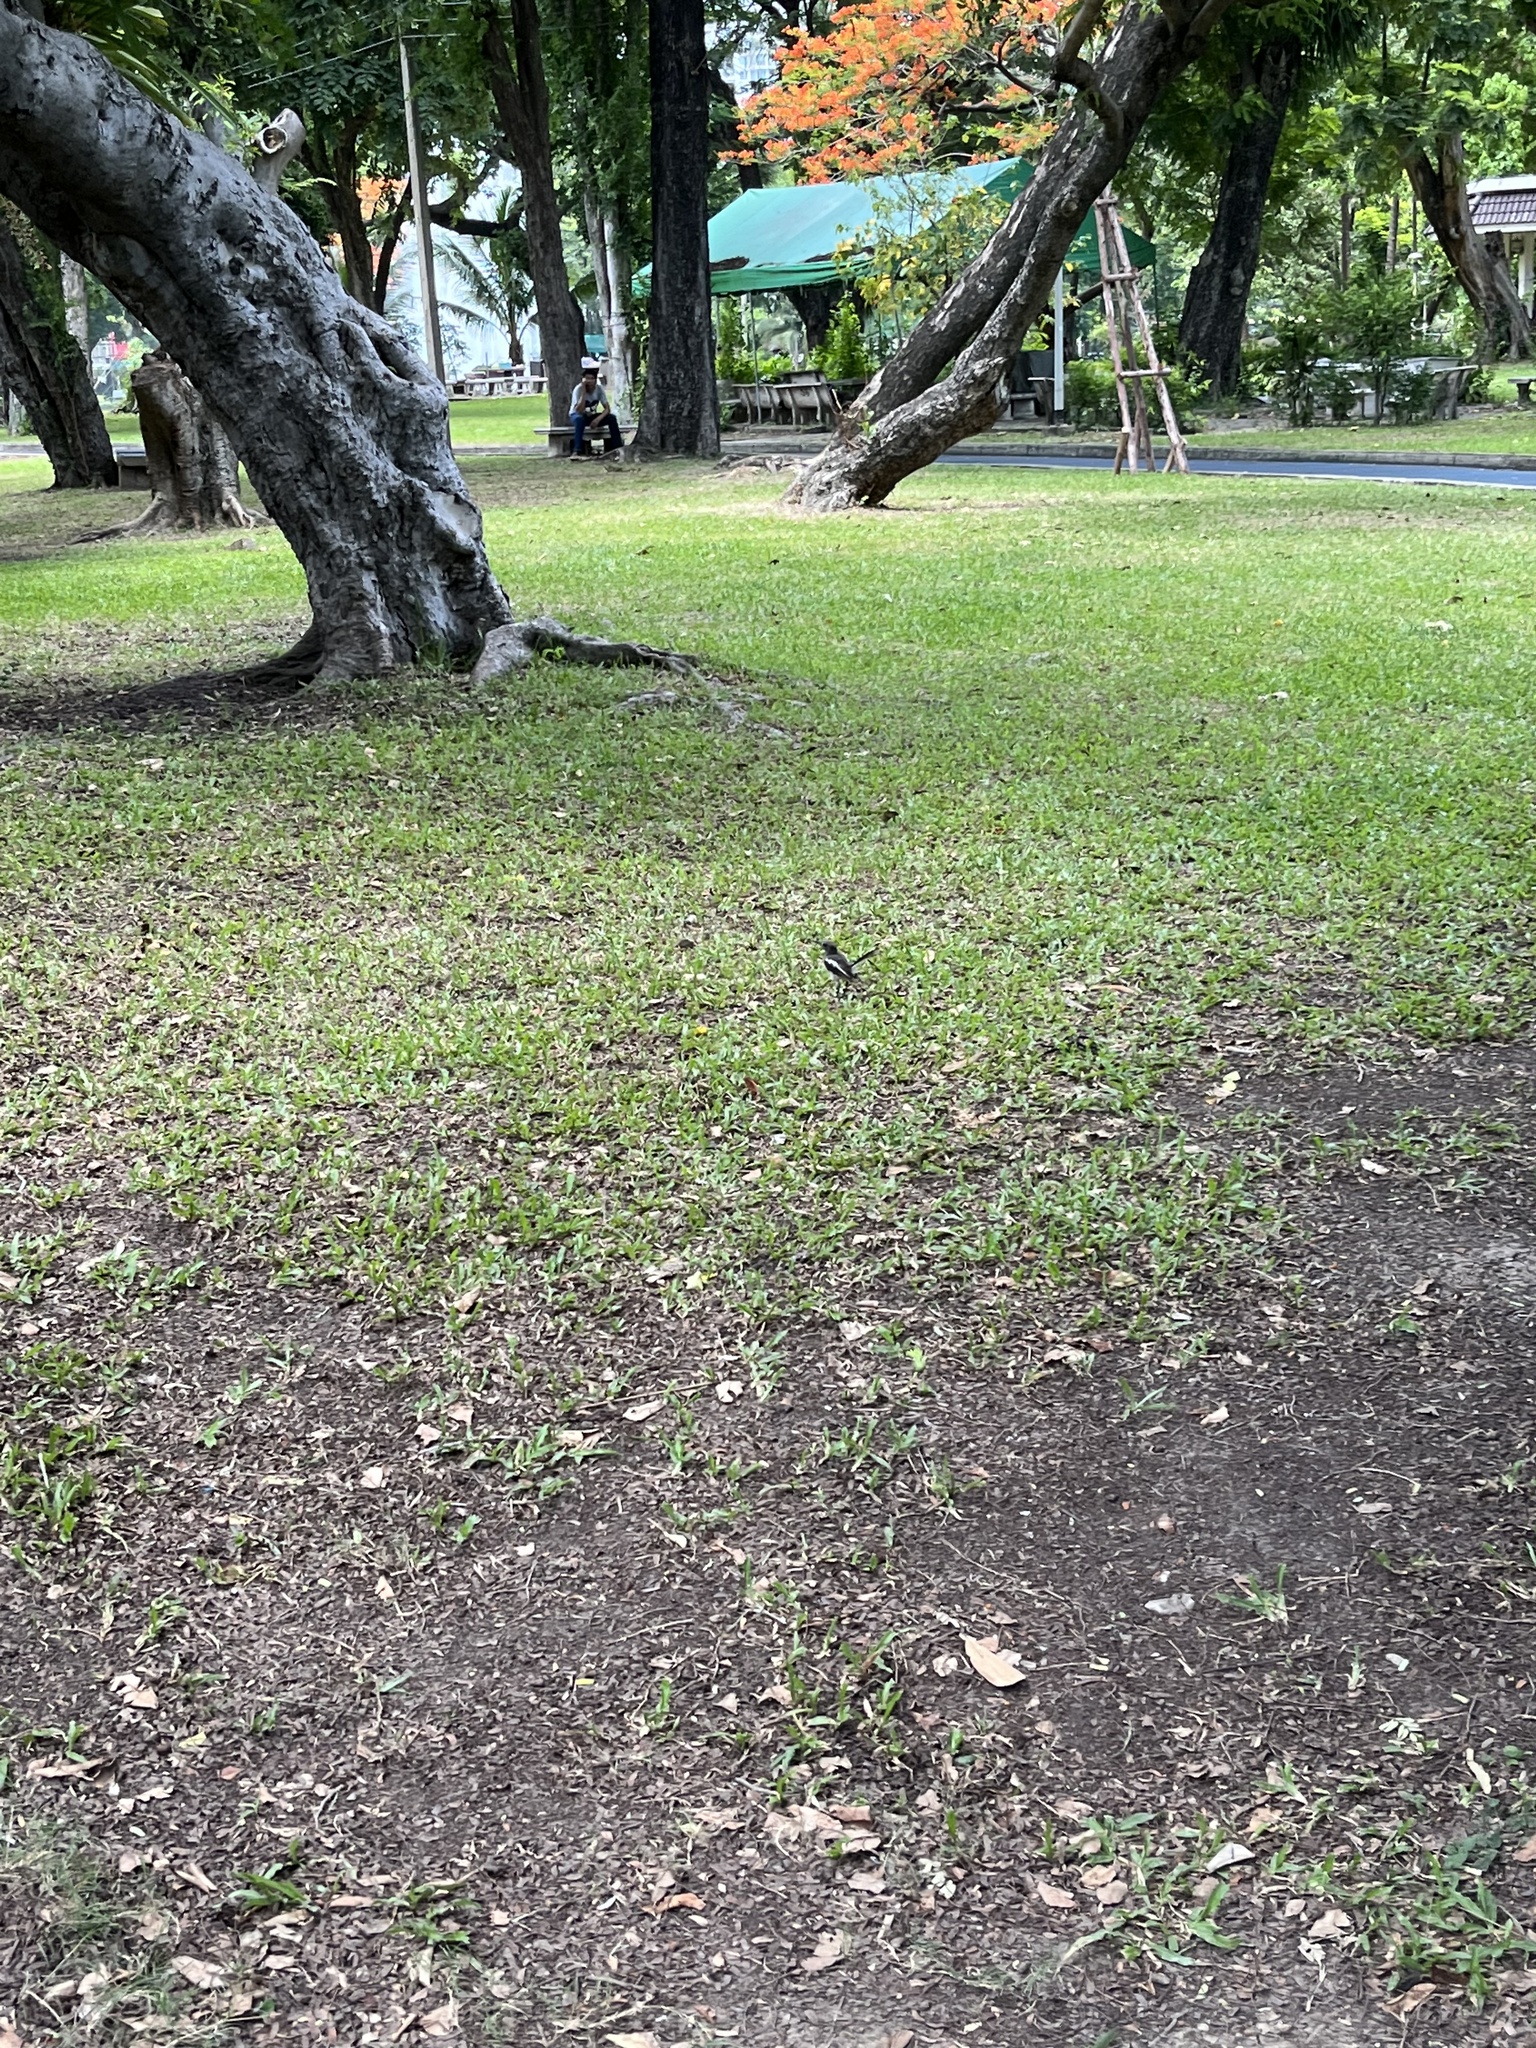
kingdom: Animalia
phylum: Chordata
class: Aves
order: Passeriformes
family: Muscicapidae
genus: Copsychus
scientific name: Copsychus saularis
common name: Oriental magpie-robin
